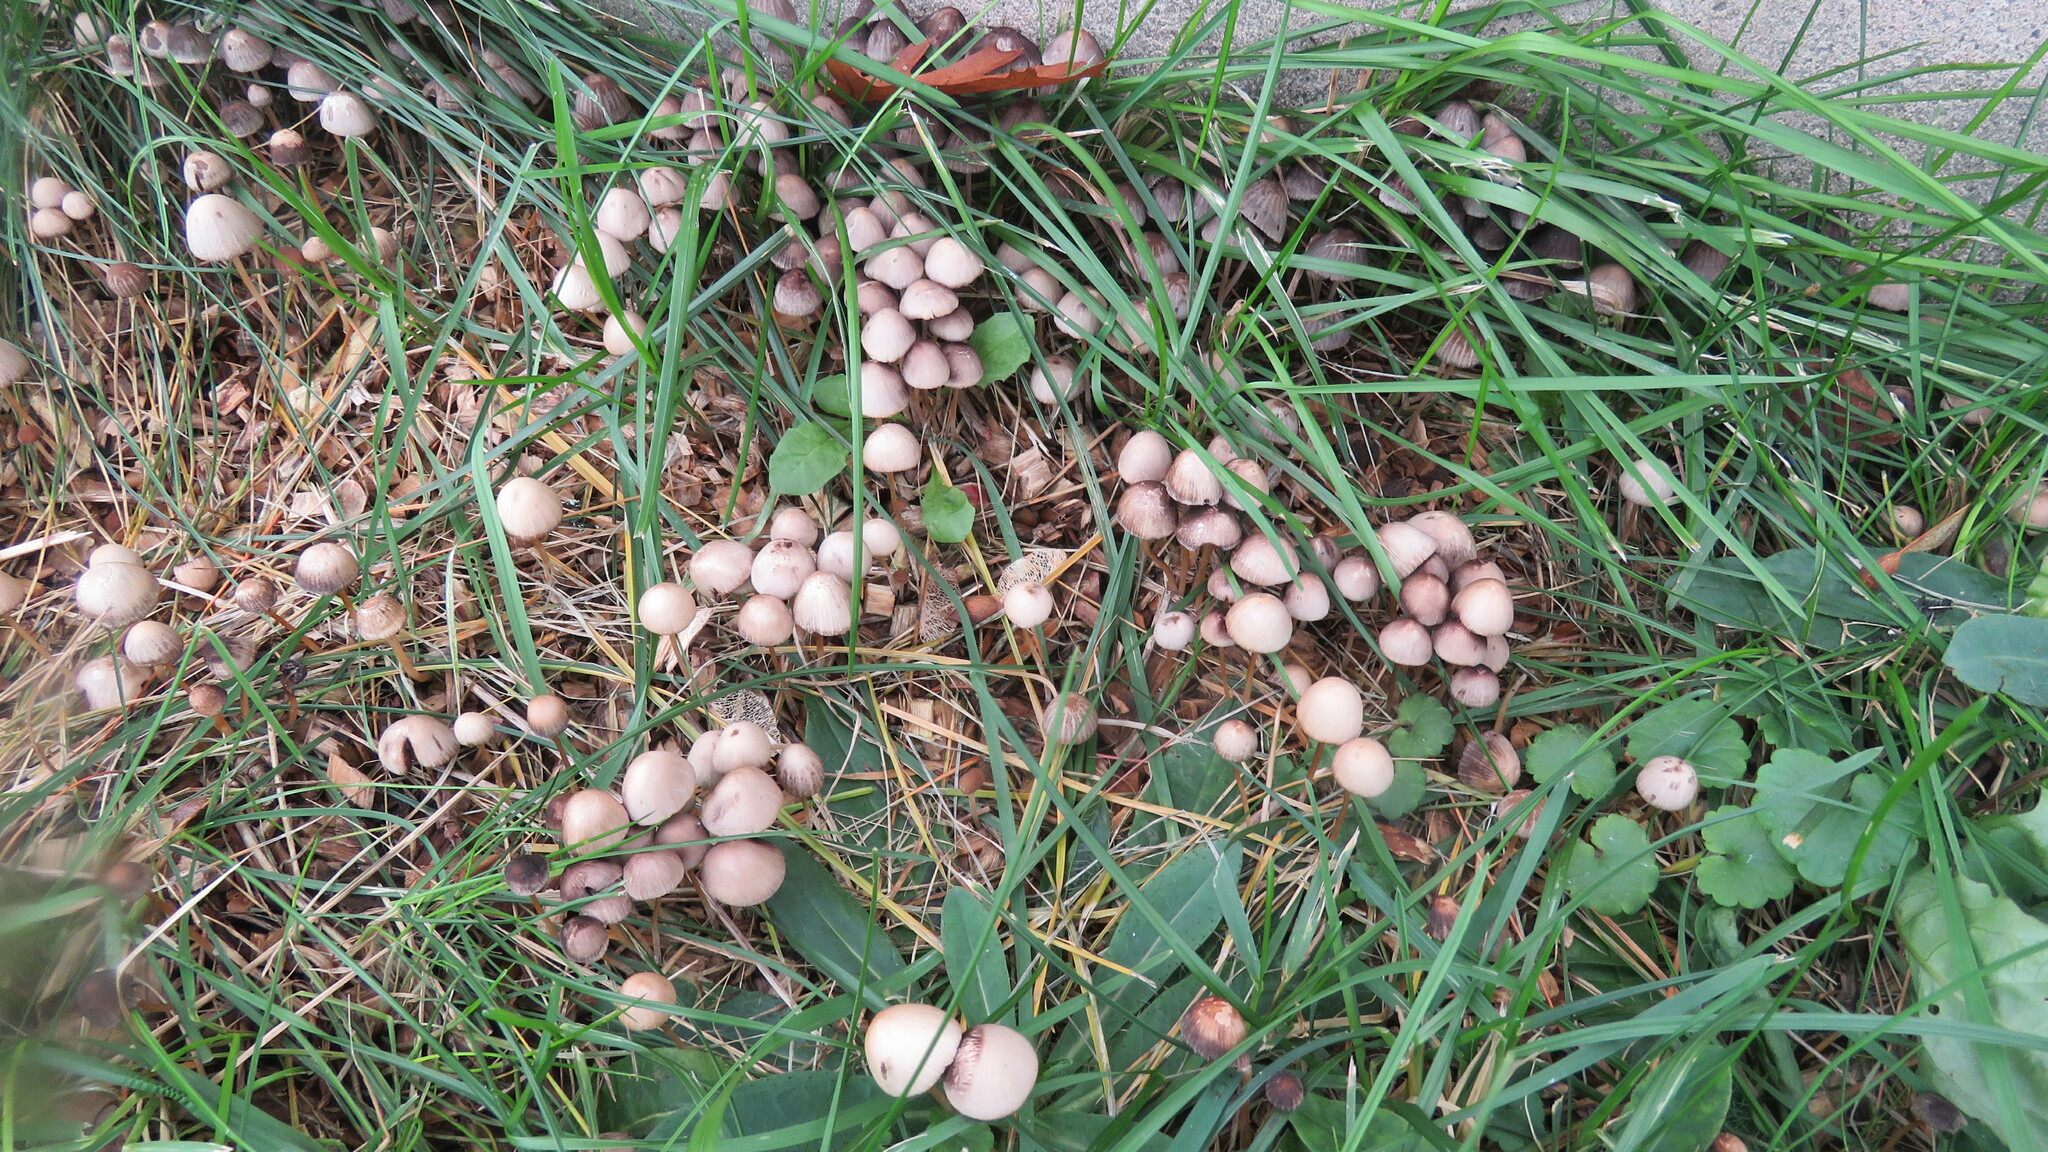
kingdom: Fungi
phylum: Basidiomycota
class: Agaricomycetes
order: Agaricales
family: Psathyrellaceae
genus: Parasola
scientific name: Parasola conopilea
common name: Conical brittlestem
